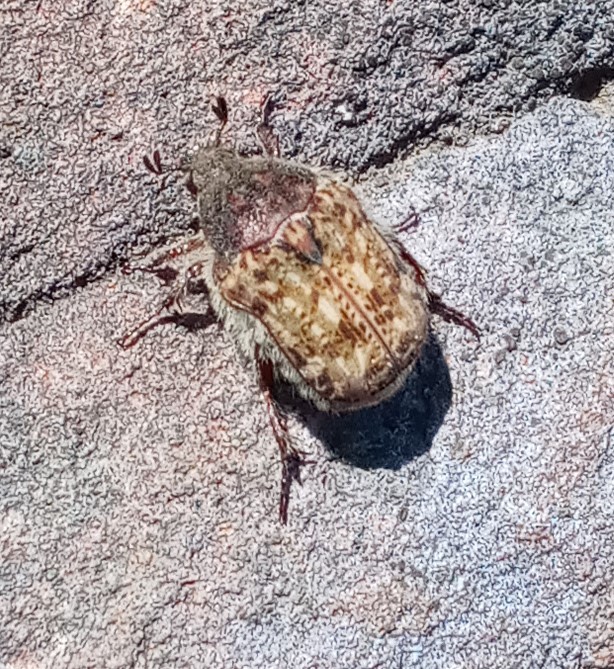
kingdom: Animalia
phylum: Arthropoda
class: Insecta
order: Coleoptera
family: Scarabaeidae
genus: Euphoria
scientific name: Euphoria inda
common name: Bumble flower beetle
